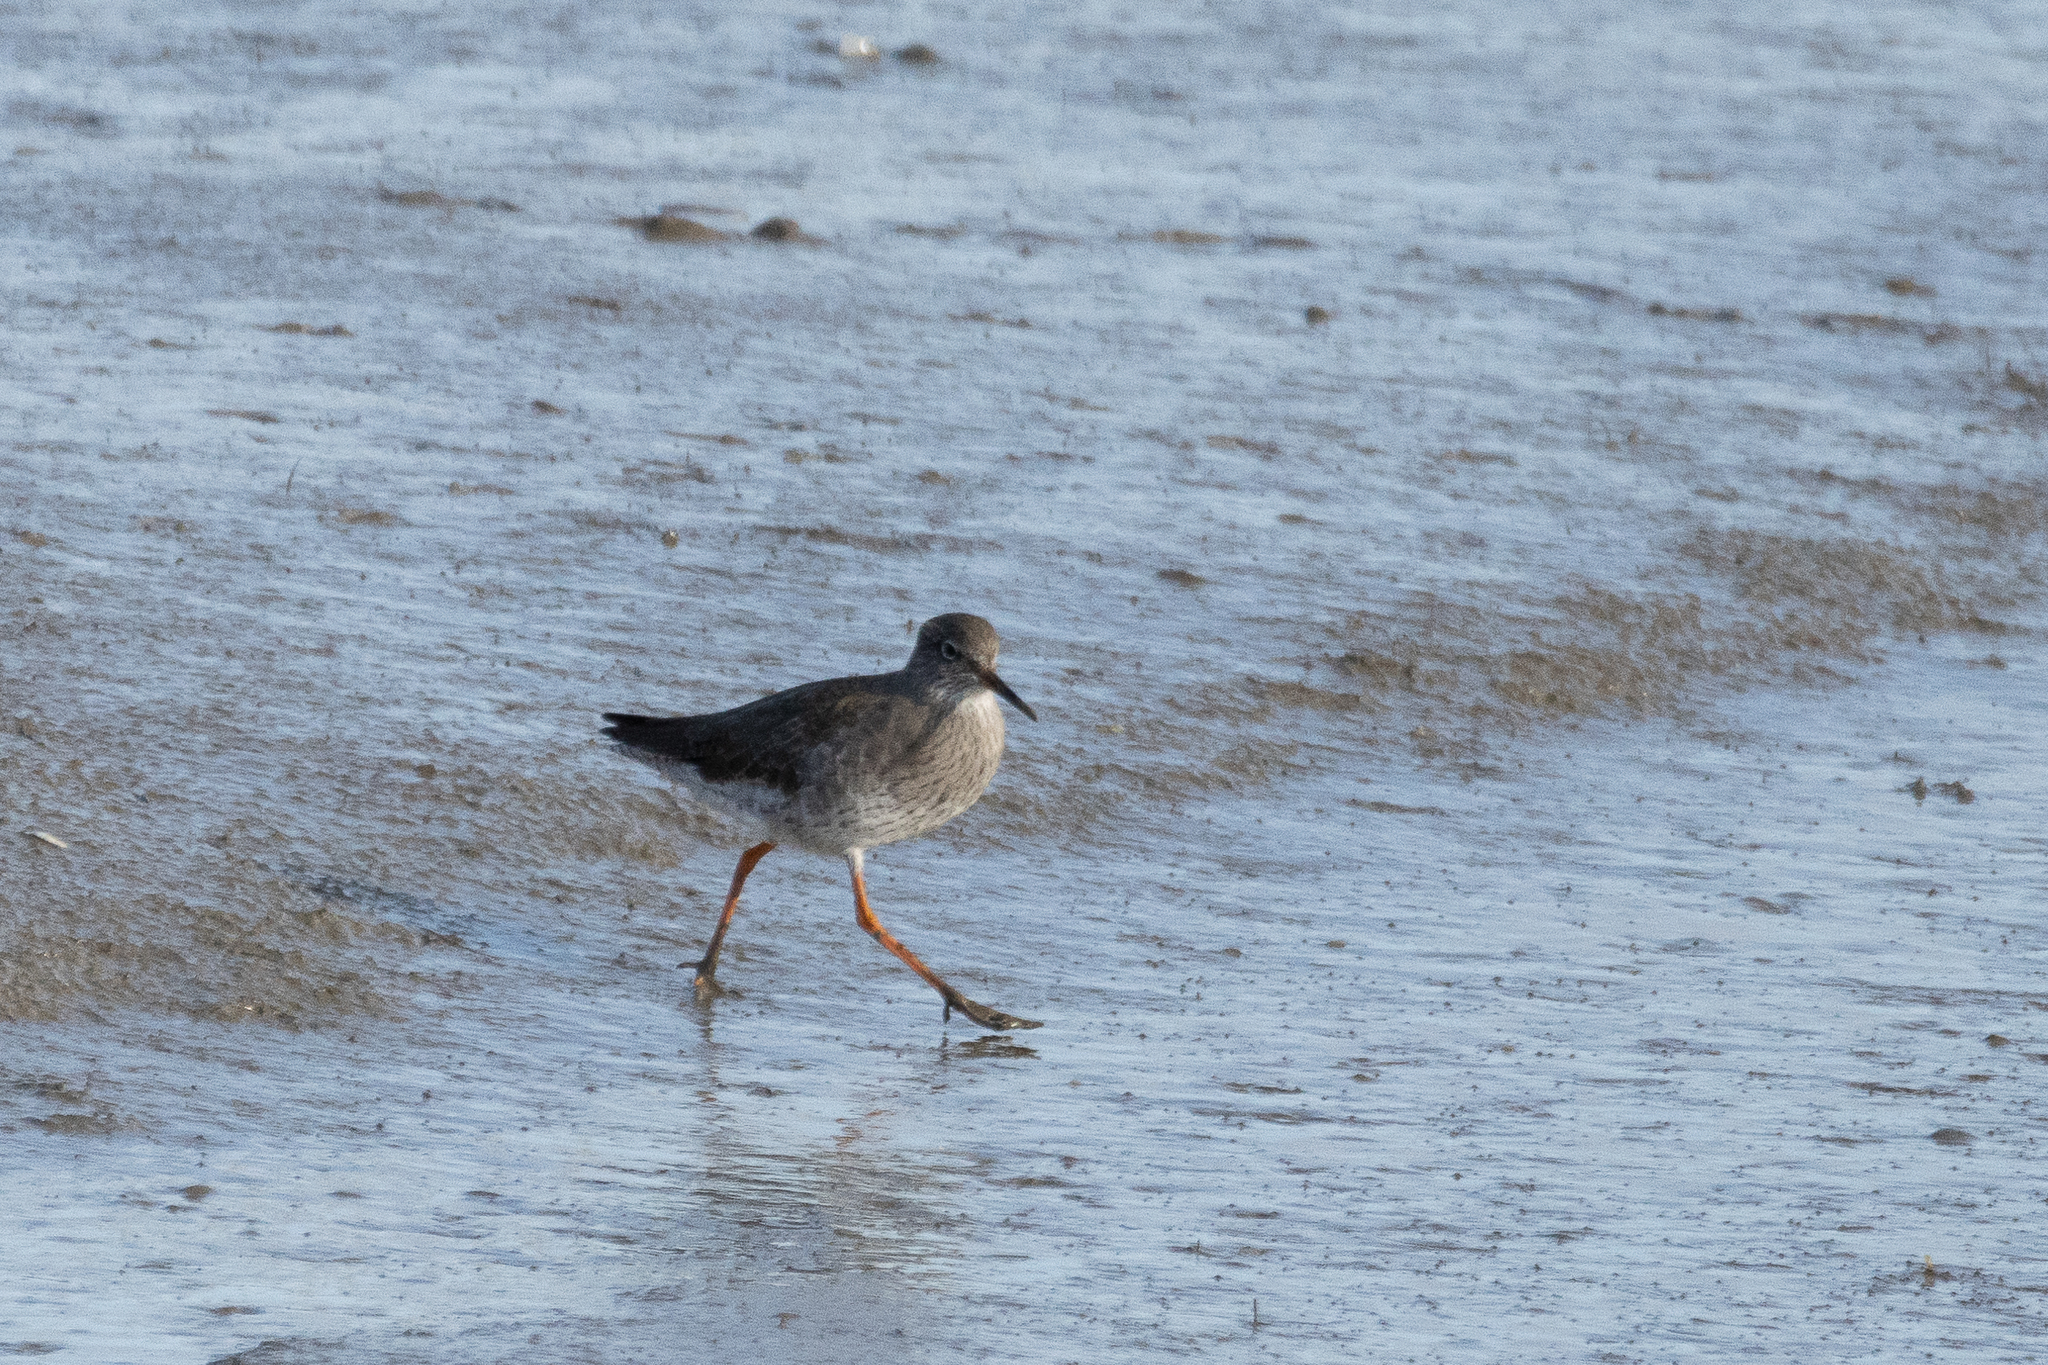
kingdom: Animalia
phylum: Chordata
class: Aves
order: Charadriiformes
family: Scolopacidae
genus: Tringa
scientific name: Tringa totanus
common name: Common redshank
